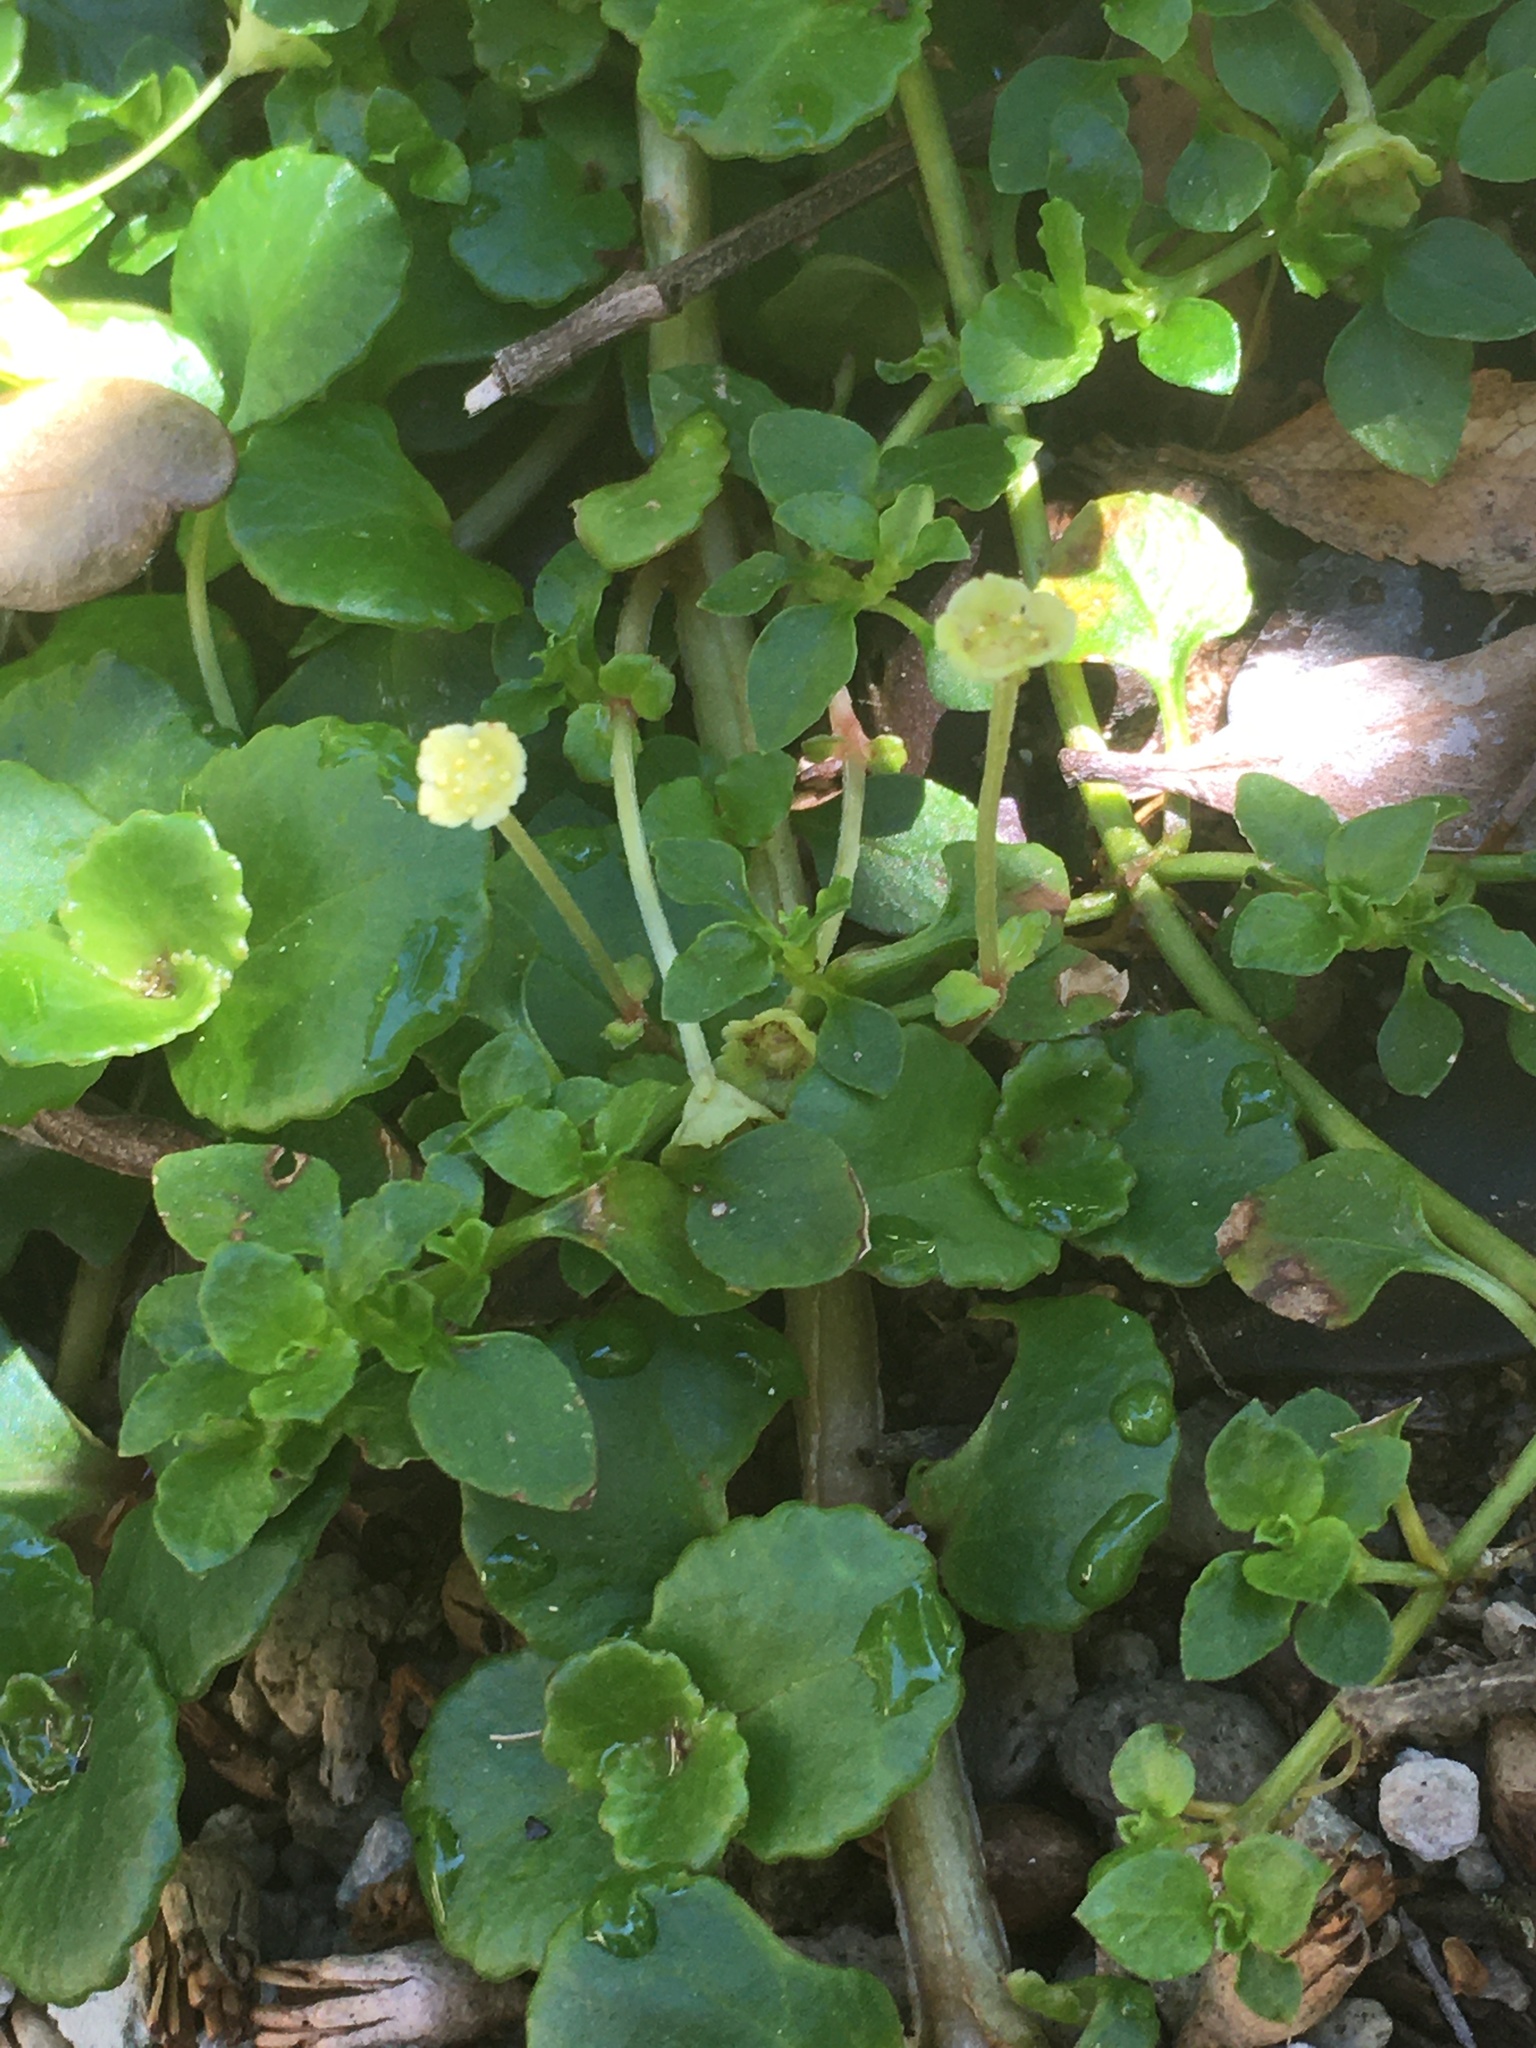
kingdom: Plantae
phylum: Tracheophyta
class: Magnoliopsida
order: Saxifragales
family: Saxifragaceae
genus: Chrysosplenium
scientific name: Chrysosplenium valdivicum
